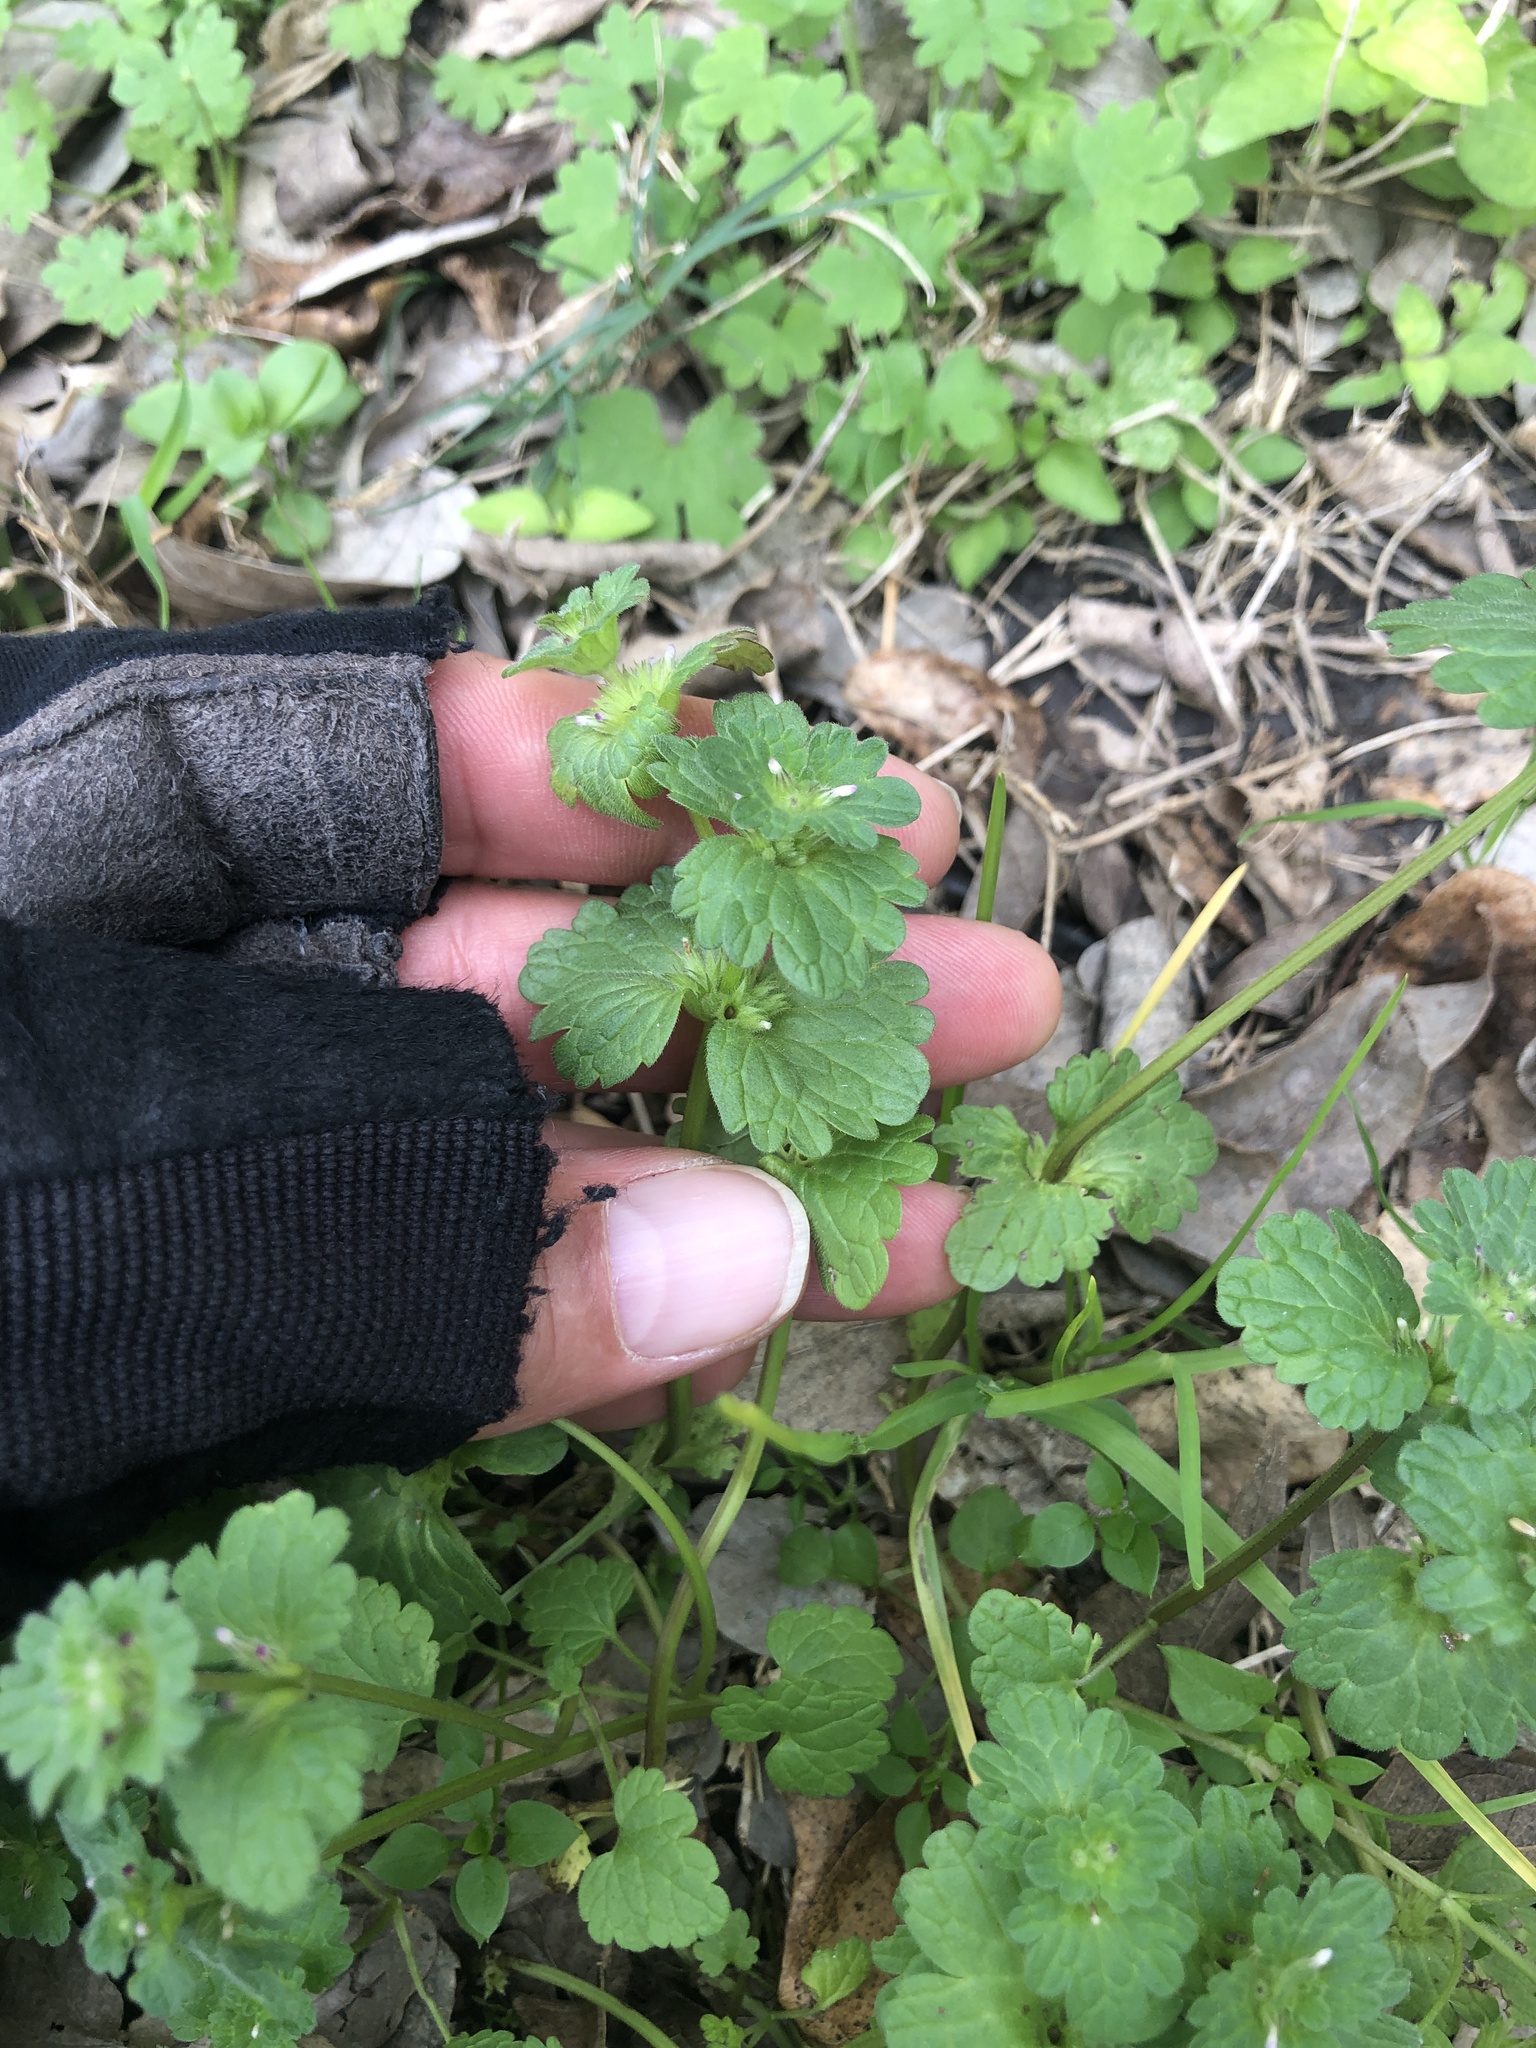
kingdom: Plantae
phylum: Tracheophyta
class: Magnoliopsida
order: Lamiales
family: Lamiaceae
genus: Lamium
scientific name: Lamium amplexicaule
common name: Henbit dead-nettle
